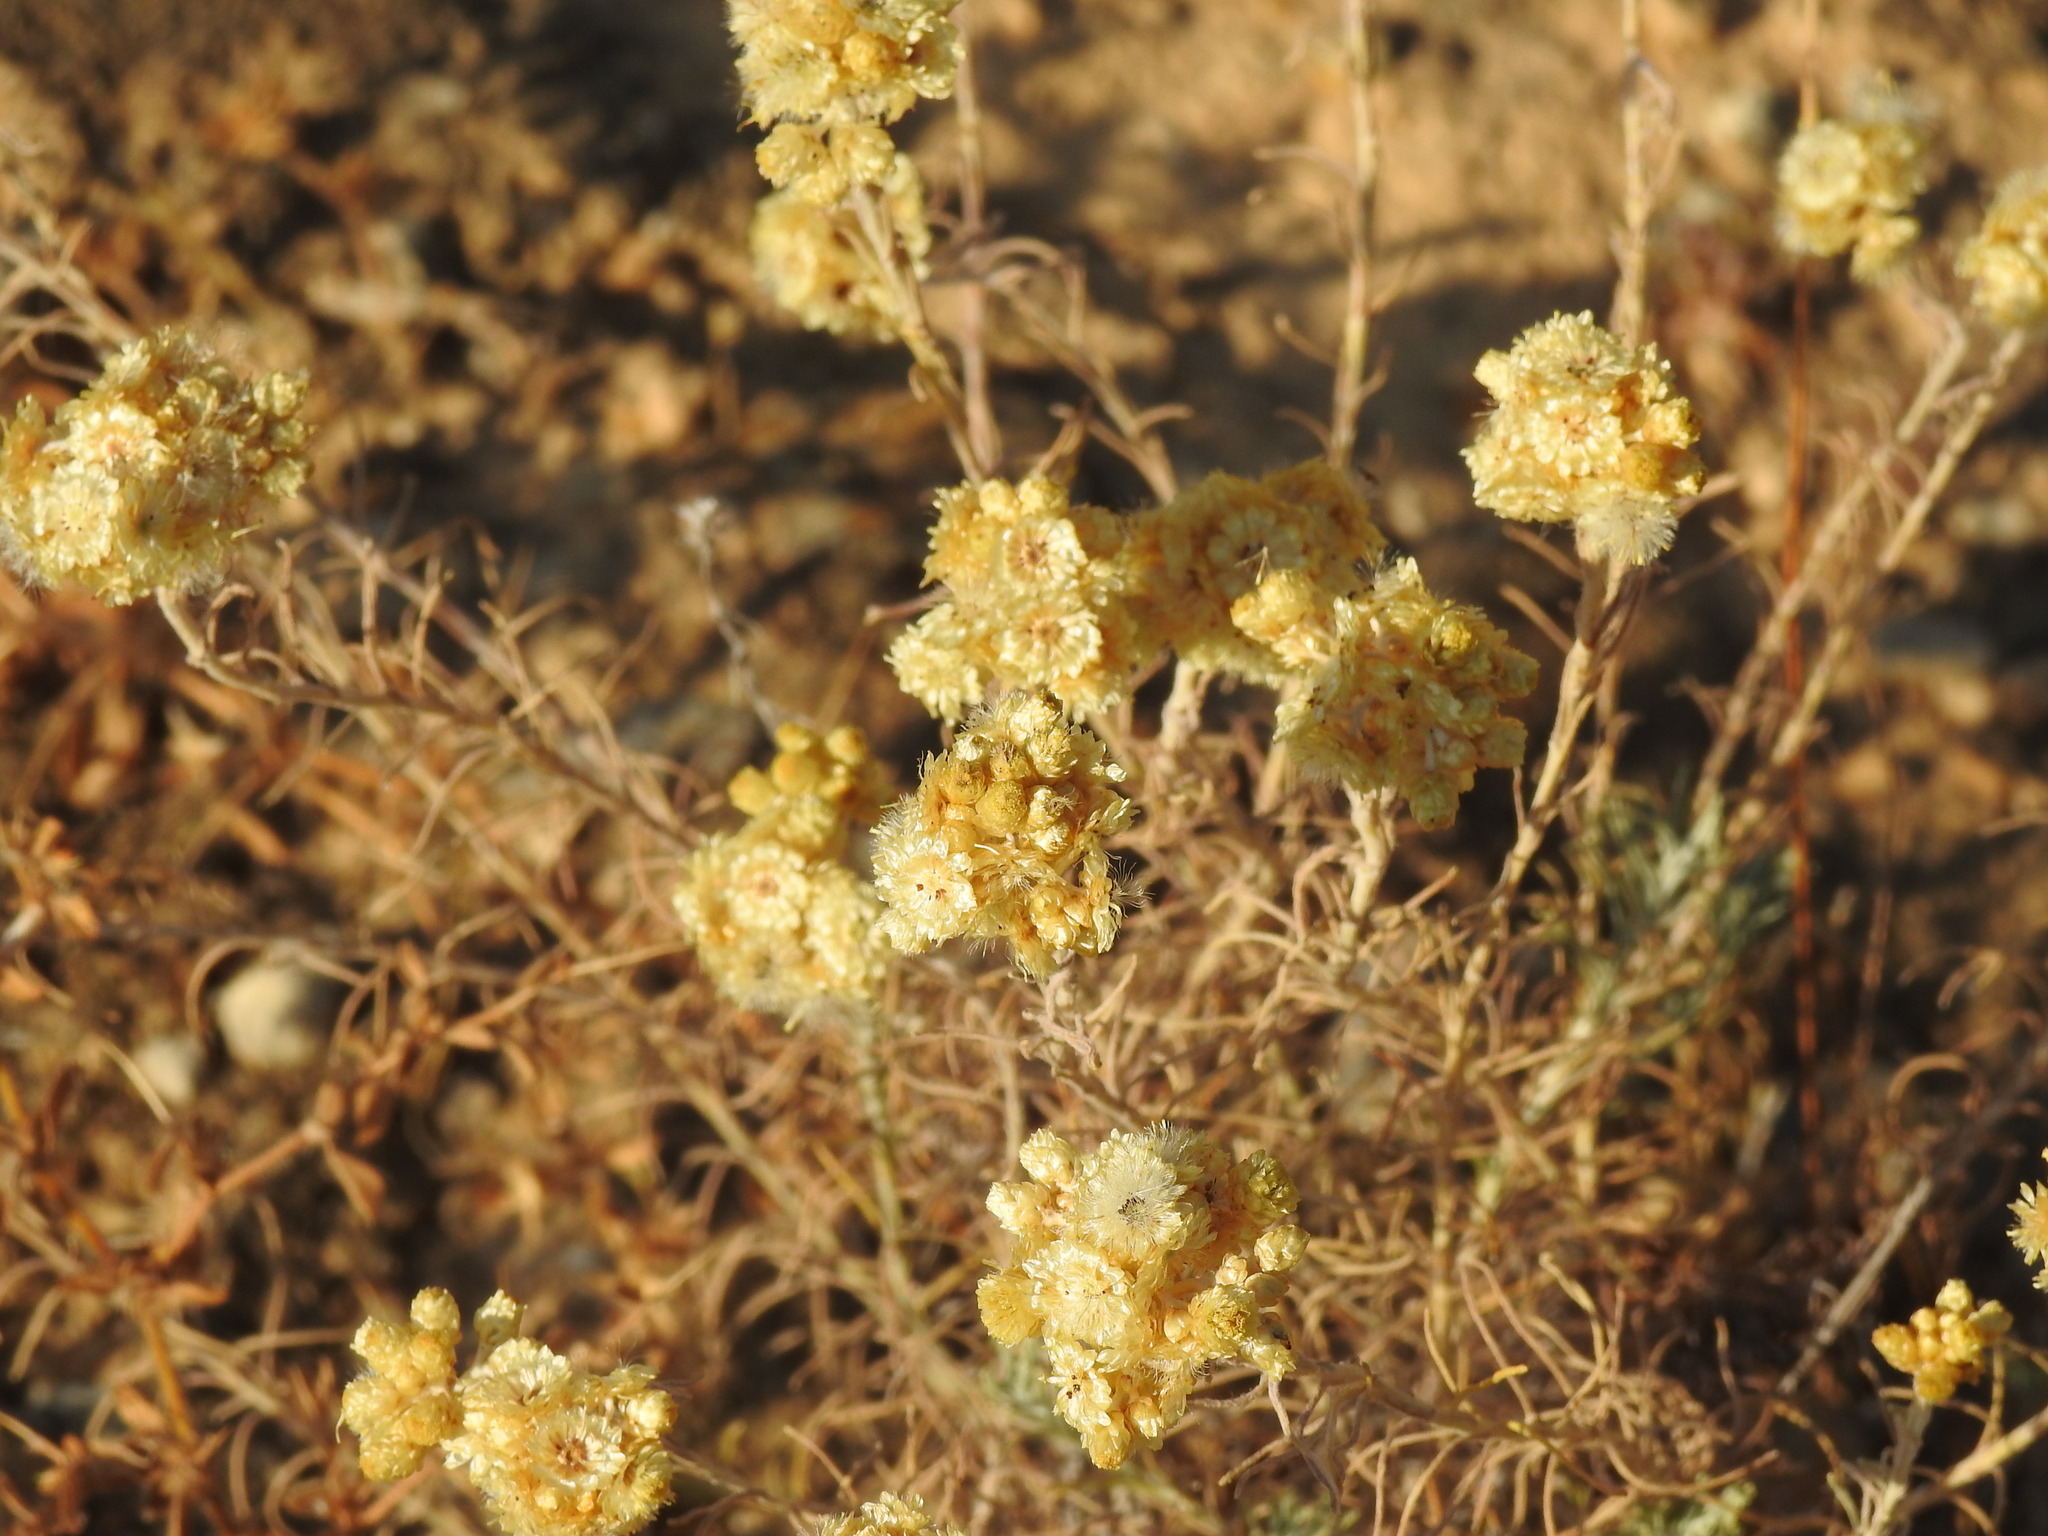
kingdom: Plantae
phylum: Tracheophyta
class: Magnoliopsida
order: Asterales
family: Asteraceae
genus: Helichrysum
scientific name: Helichrysum stoechas
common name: Goldilocks
